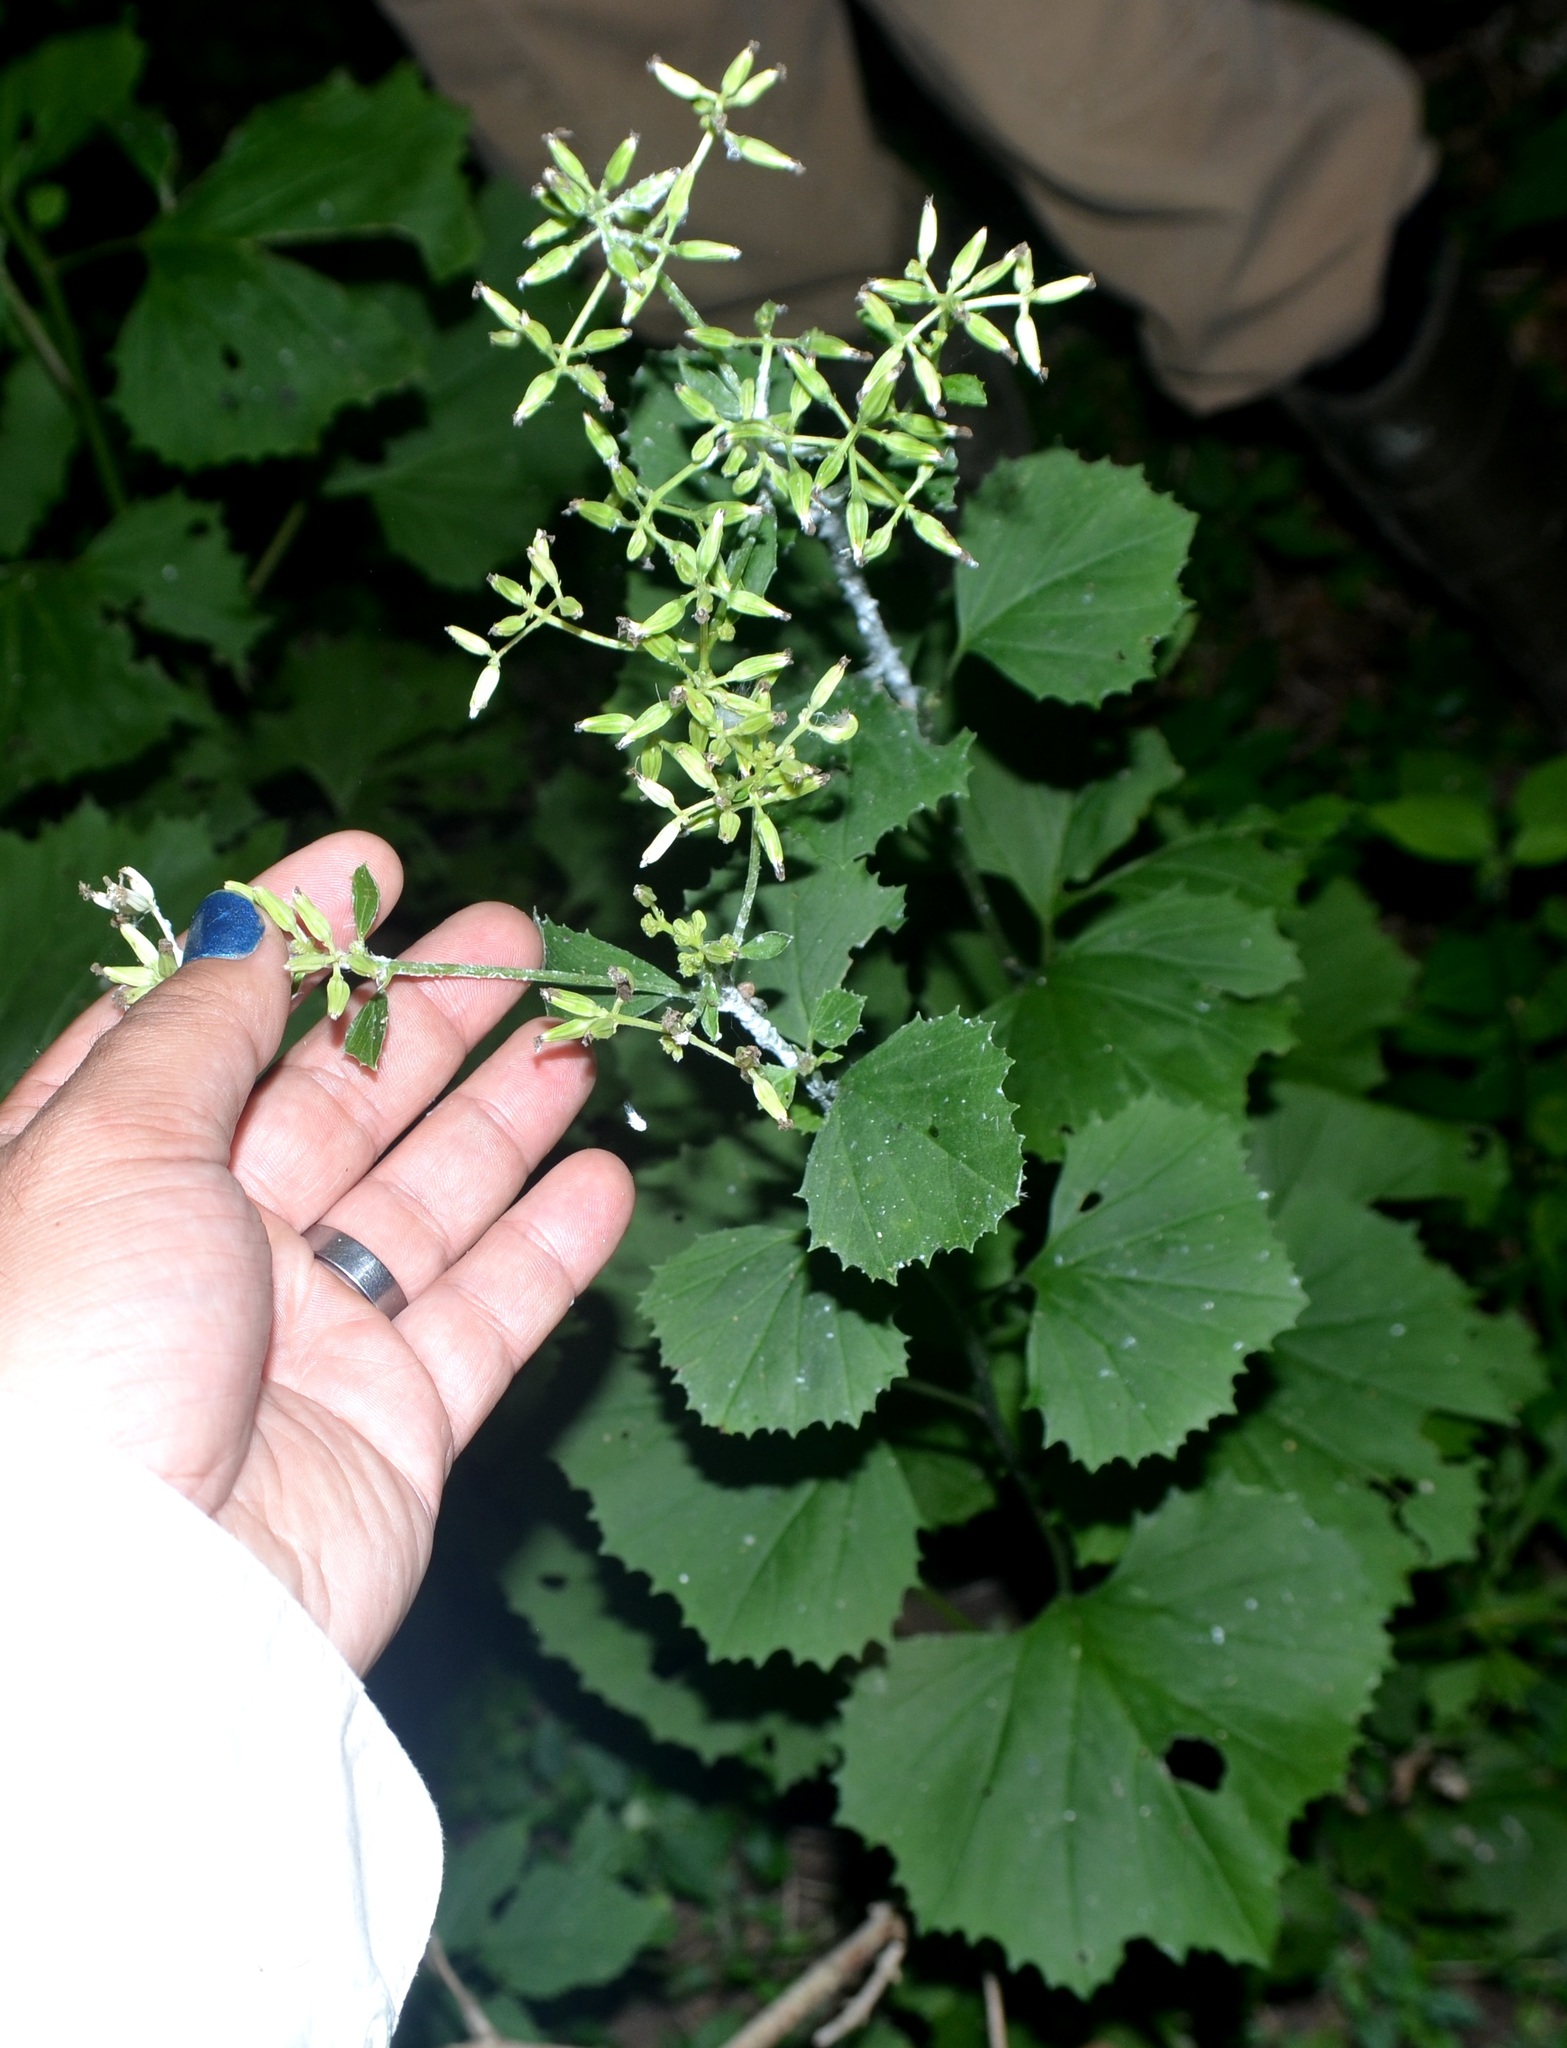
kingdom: Plantae
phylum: Tracheophyta
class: Magnoliopsida
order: Asterales
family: Asteraceae
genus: Arnoglossum
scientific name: Arnoglossum reniforme
